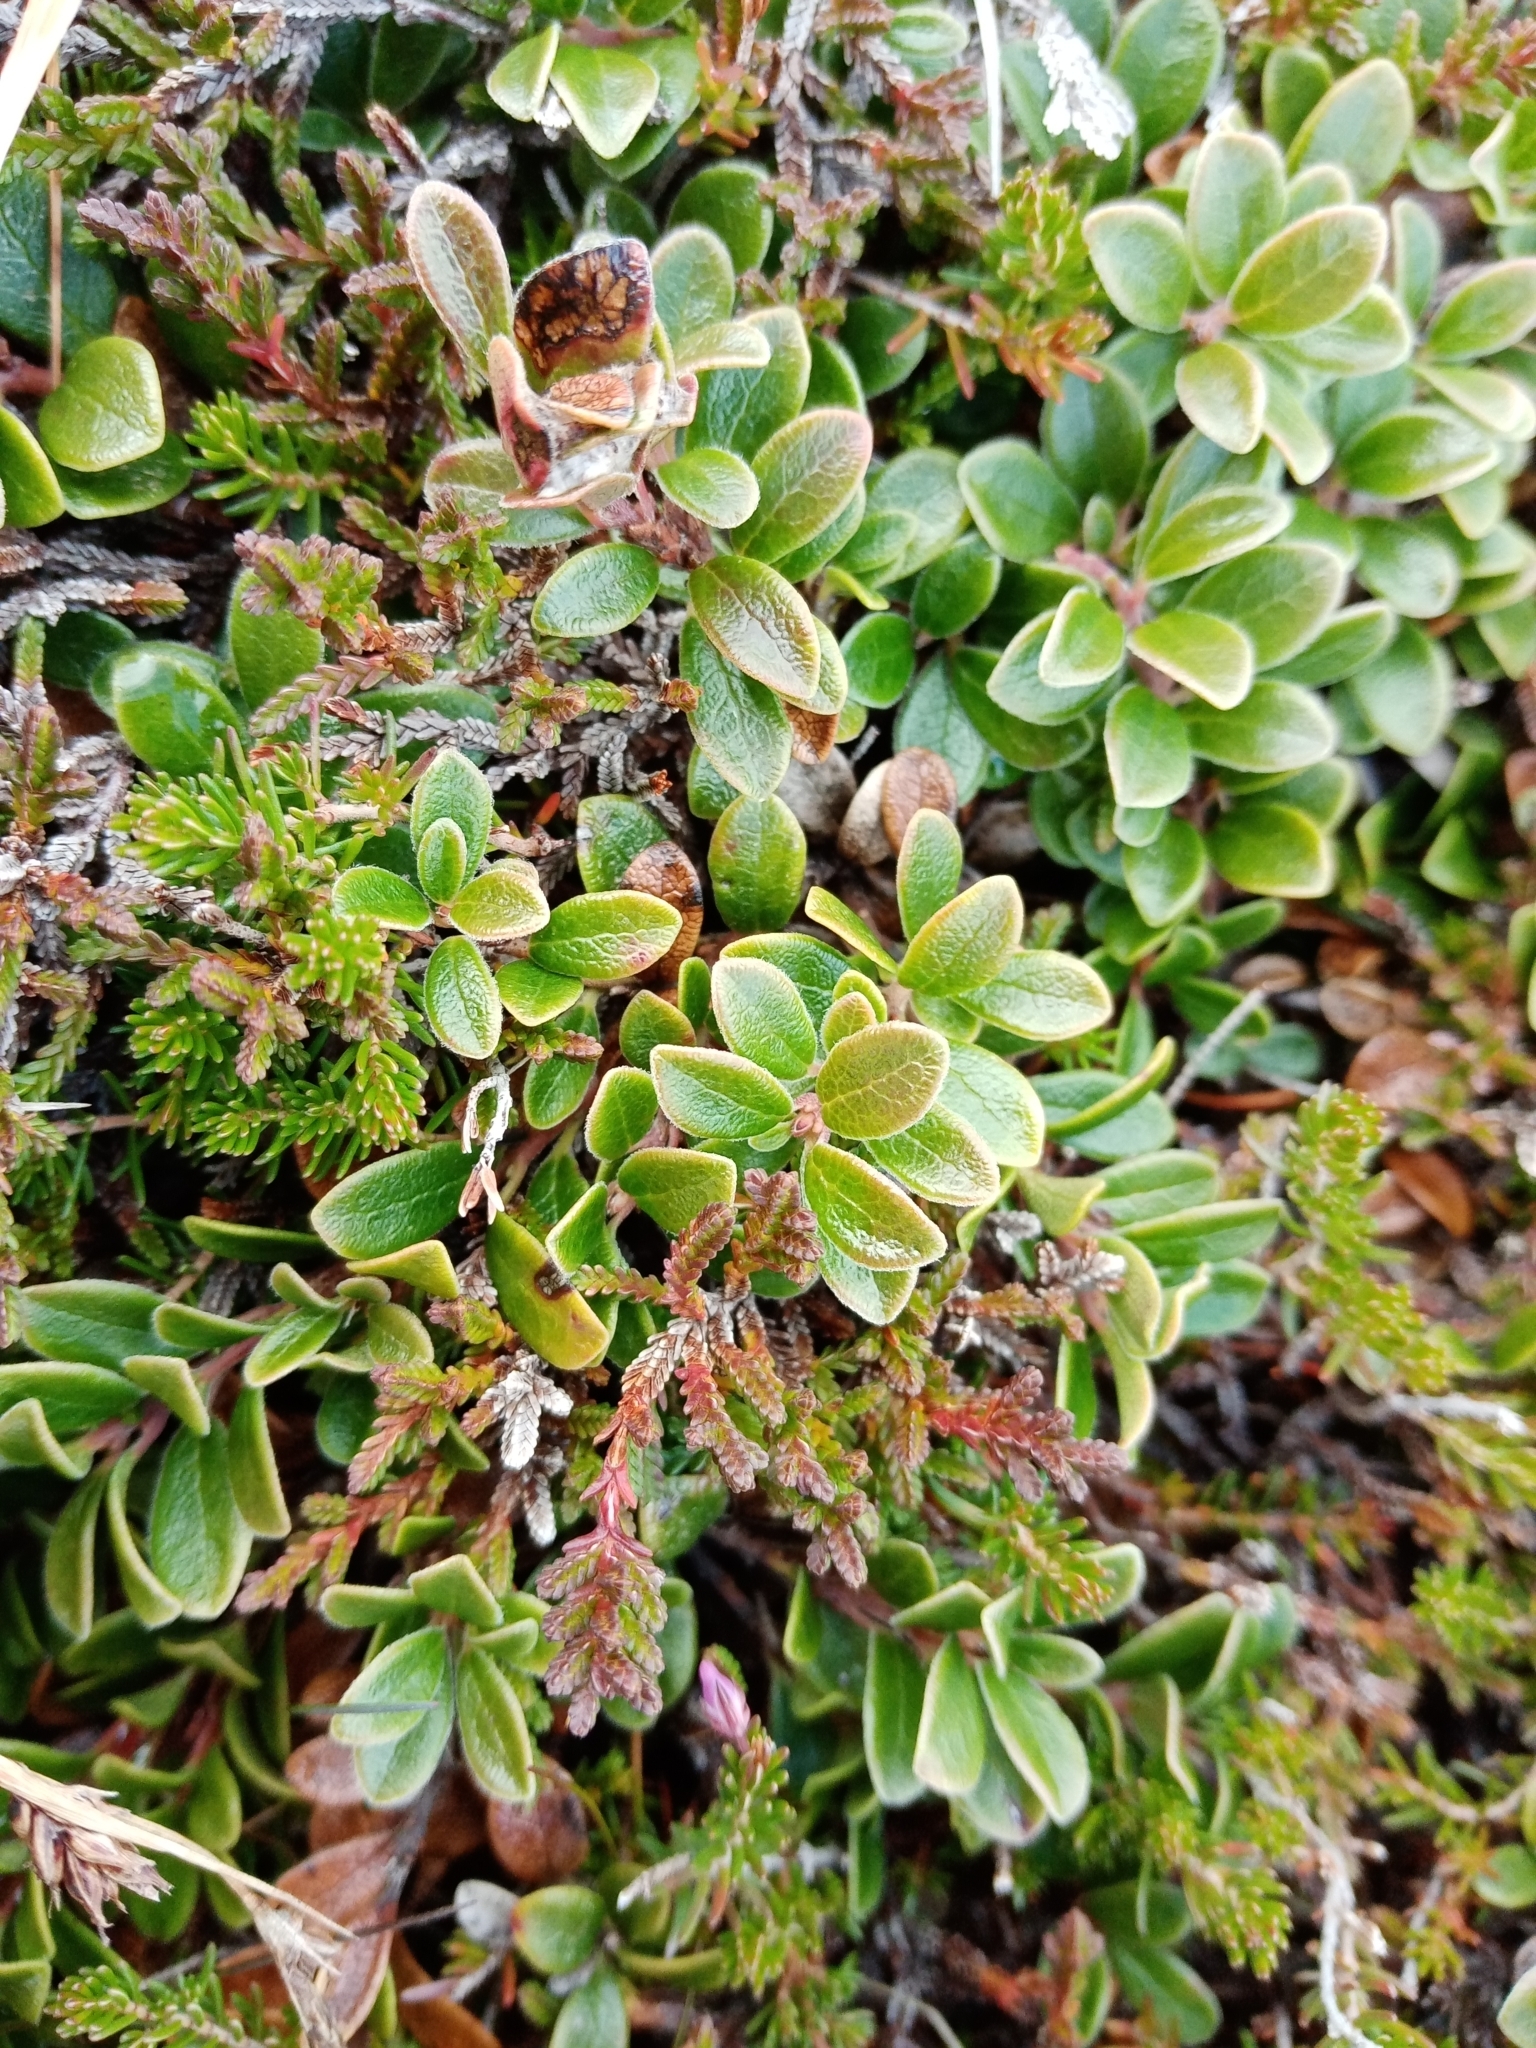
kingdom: Plantae
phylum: Tracheophyta
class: Magnoliopsida
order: Ericales
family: Ericaceae
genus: Arctostaphylos
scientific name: Arctostaphylos uva-ursi
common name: Bearberry
